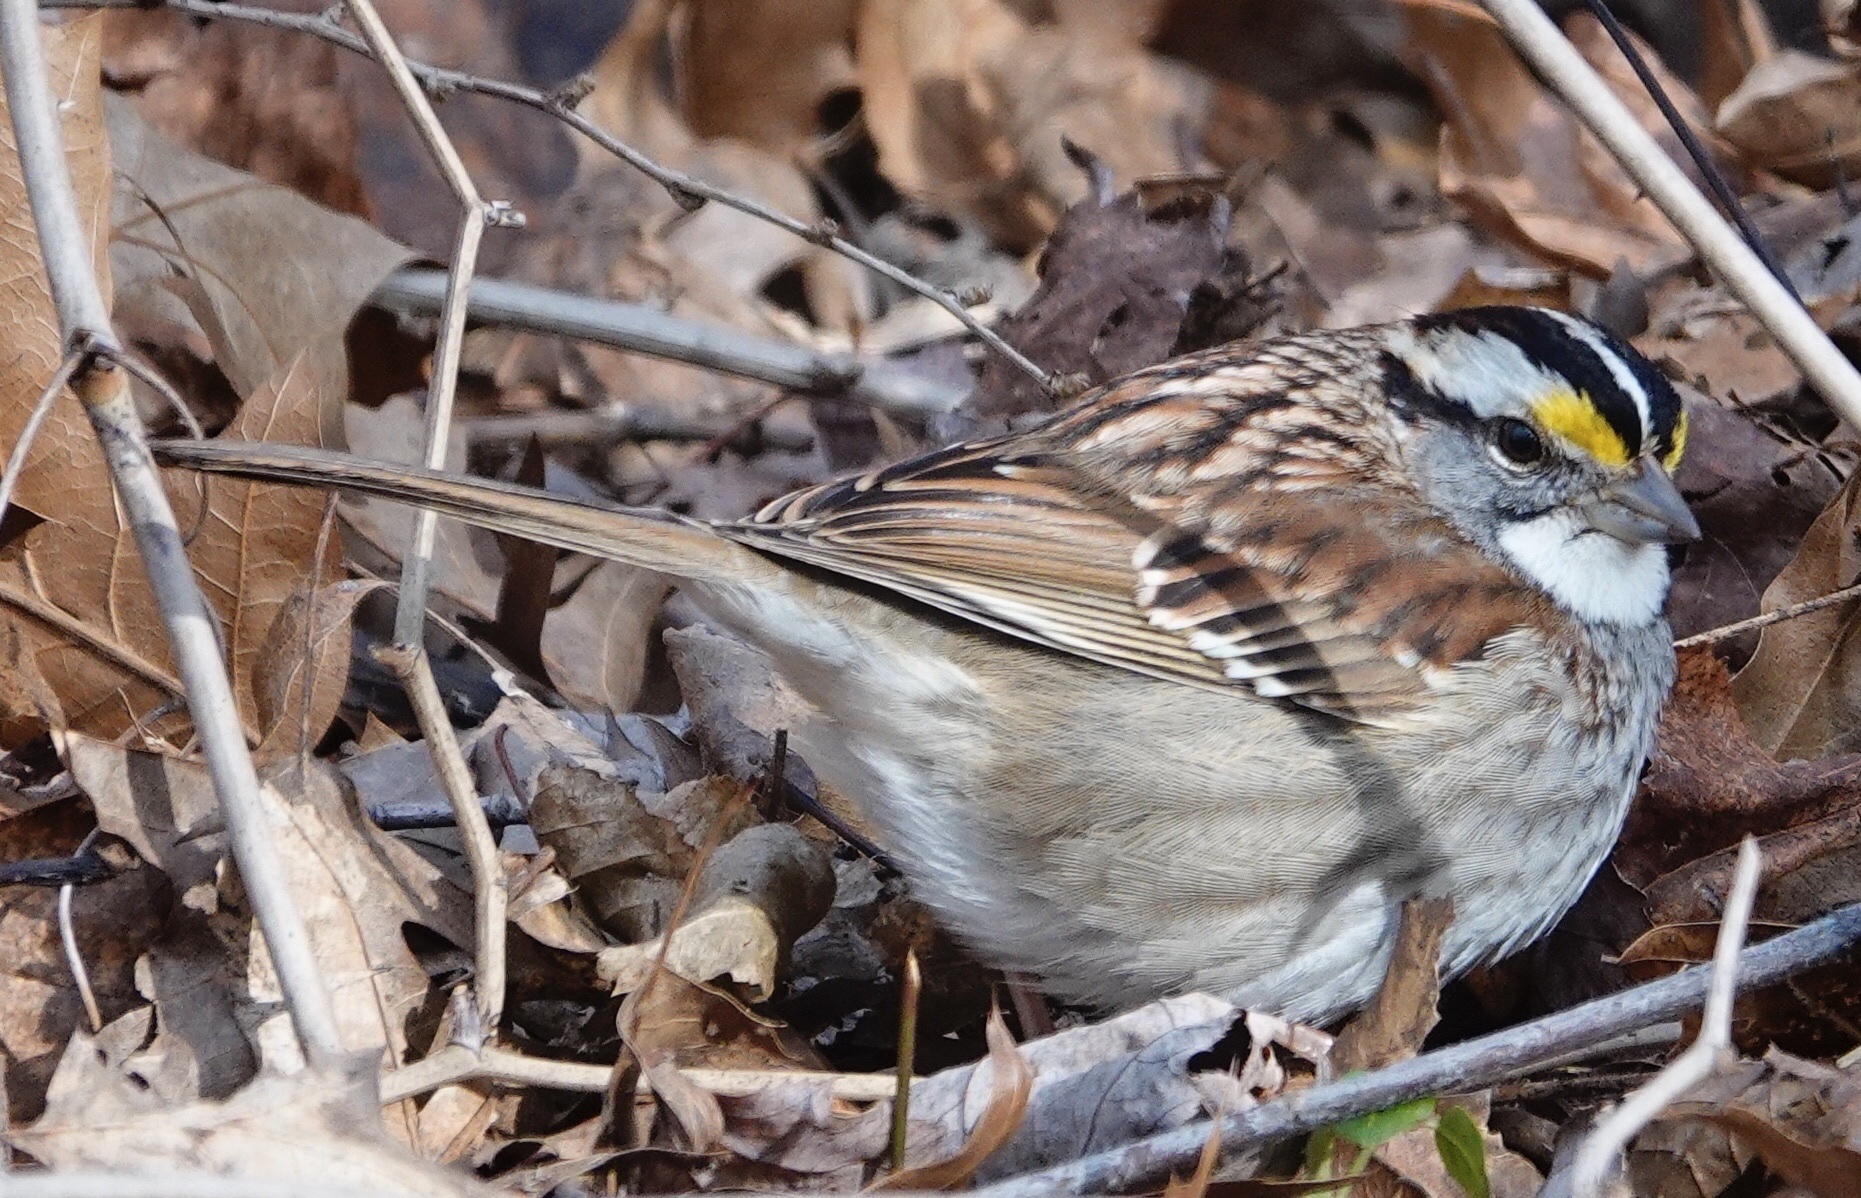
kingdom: Animalia
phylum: Chordata
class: Aves
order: Passeriformes
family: Passerellidae
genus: Zonotrichia
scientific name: Zonotrichia albicollis
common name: White-throated sparrow
